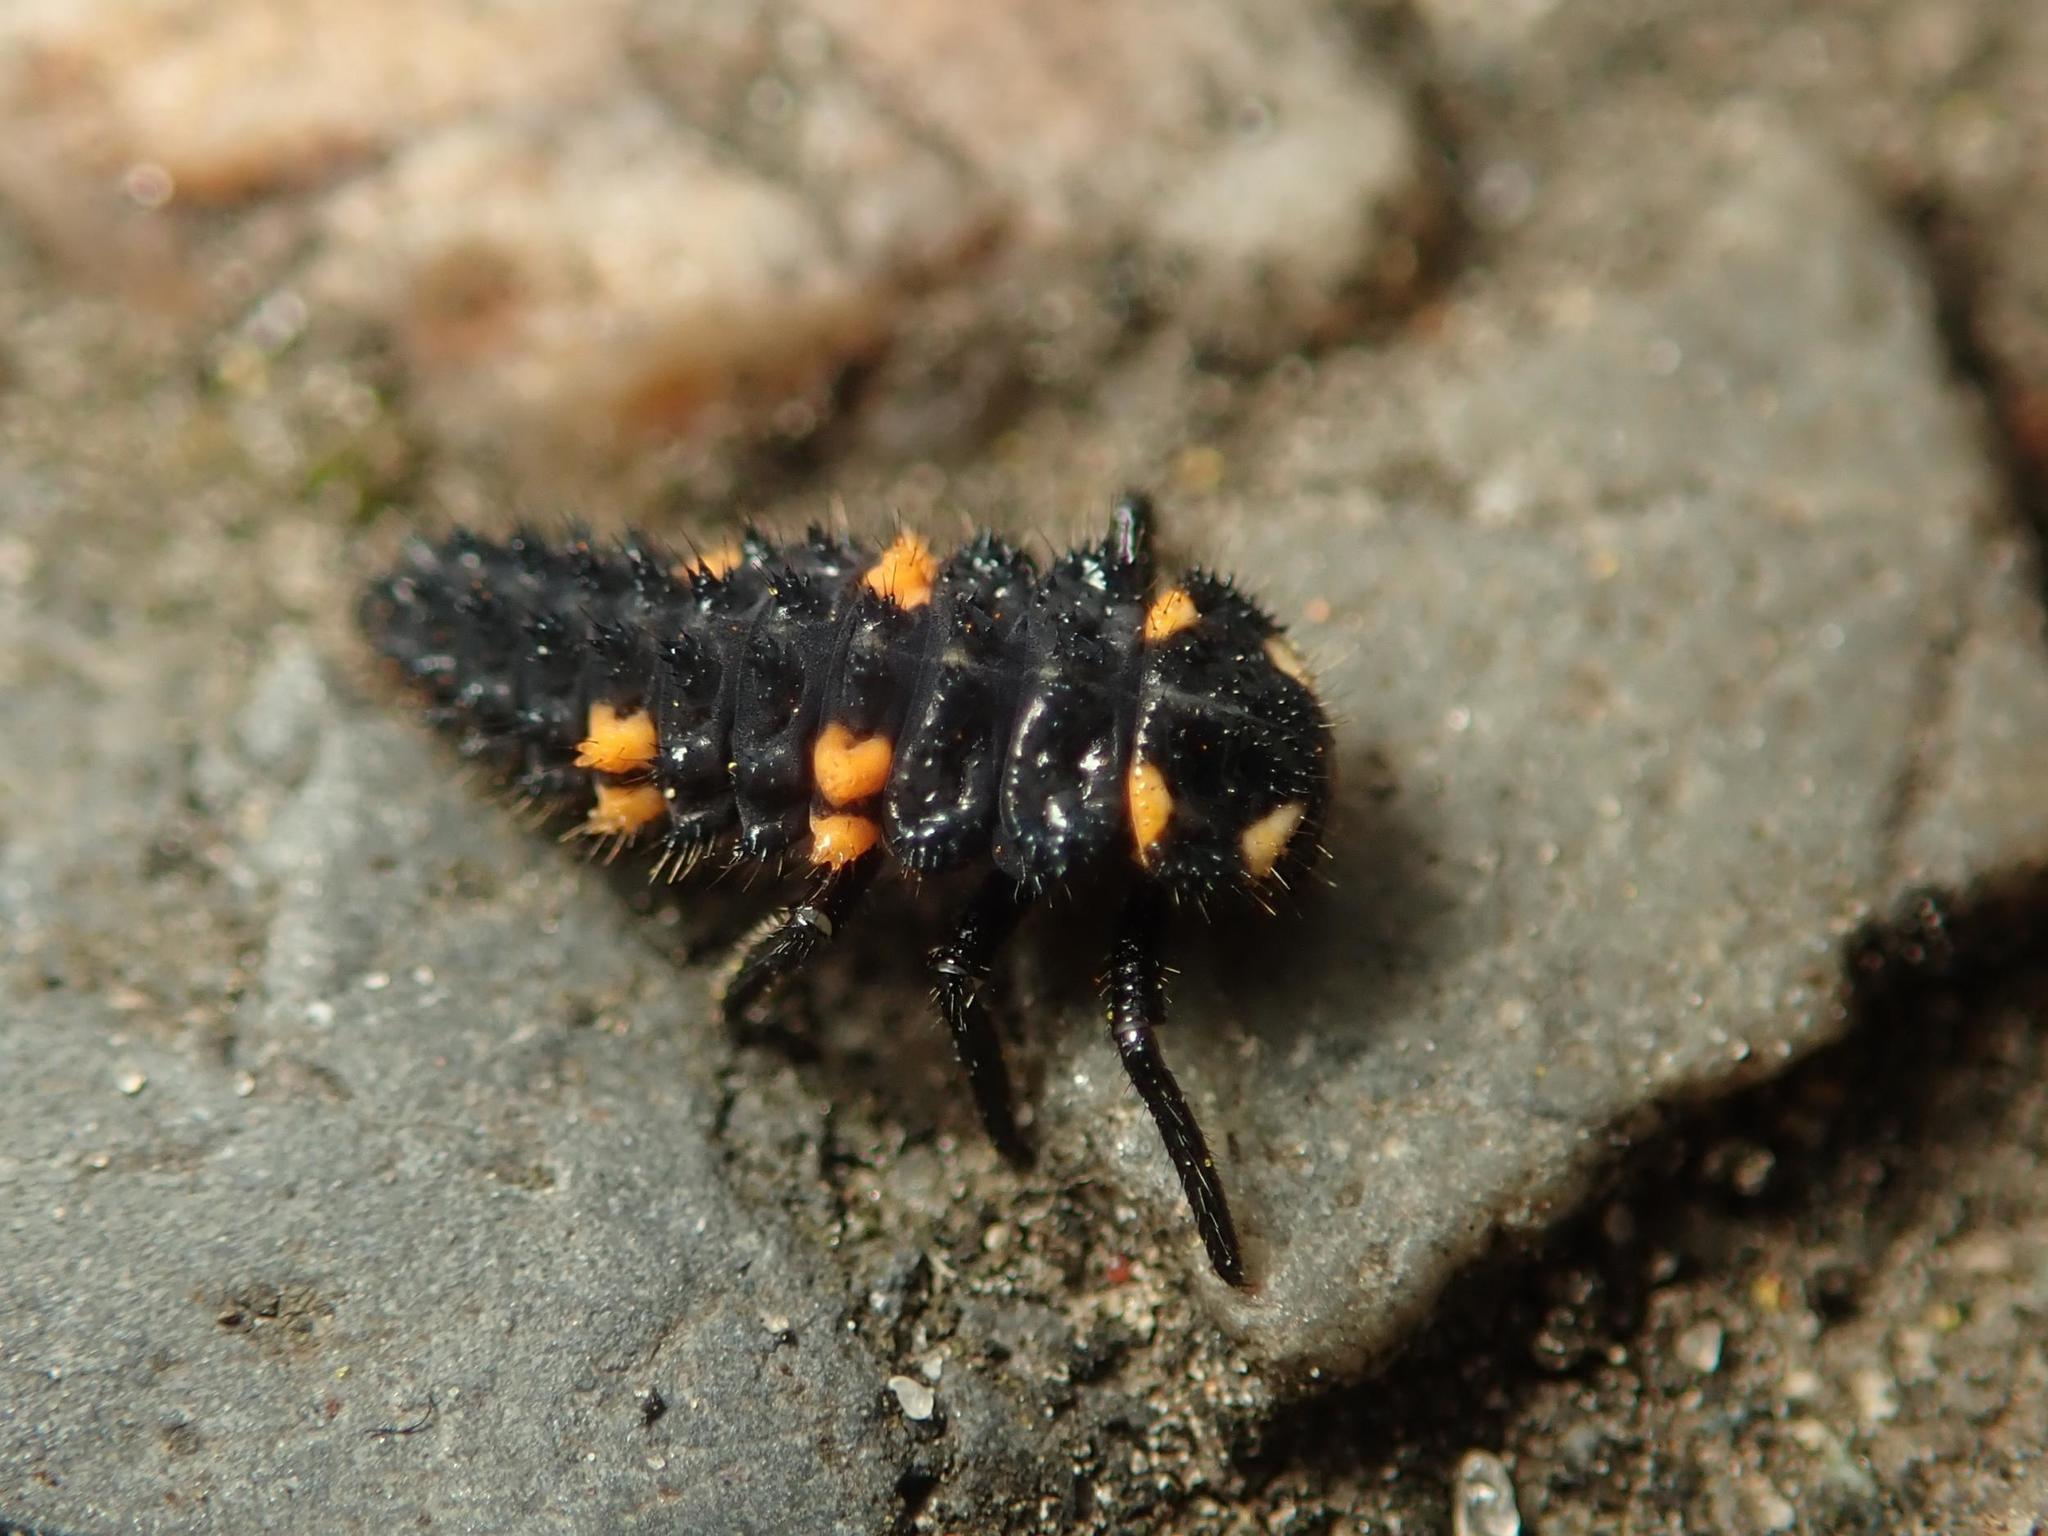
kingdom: Animalia
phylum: Arthropoda
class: Insecta
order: Coleoptera
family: Coccinellidae
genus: Coccinella
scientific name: Coccinella septempunctata
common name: Sevenspotted lady beetle
